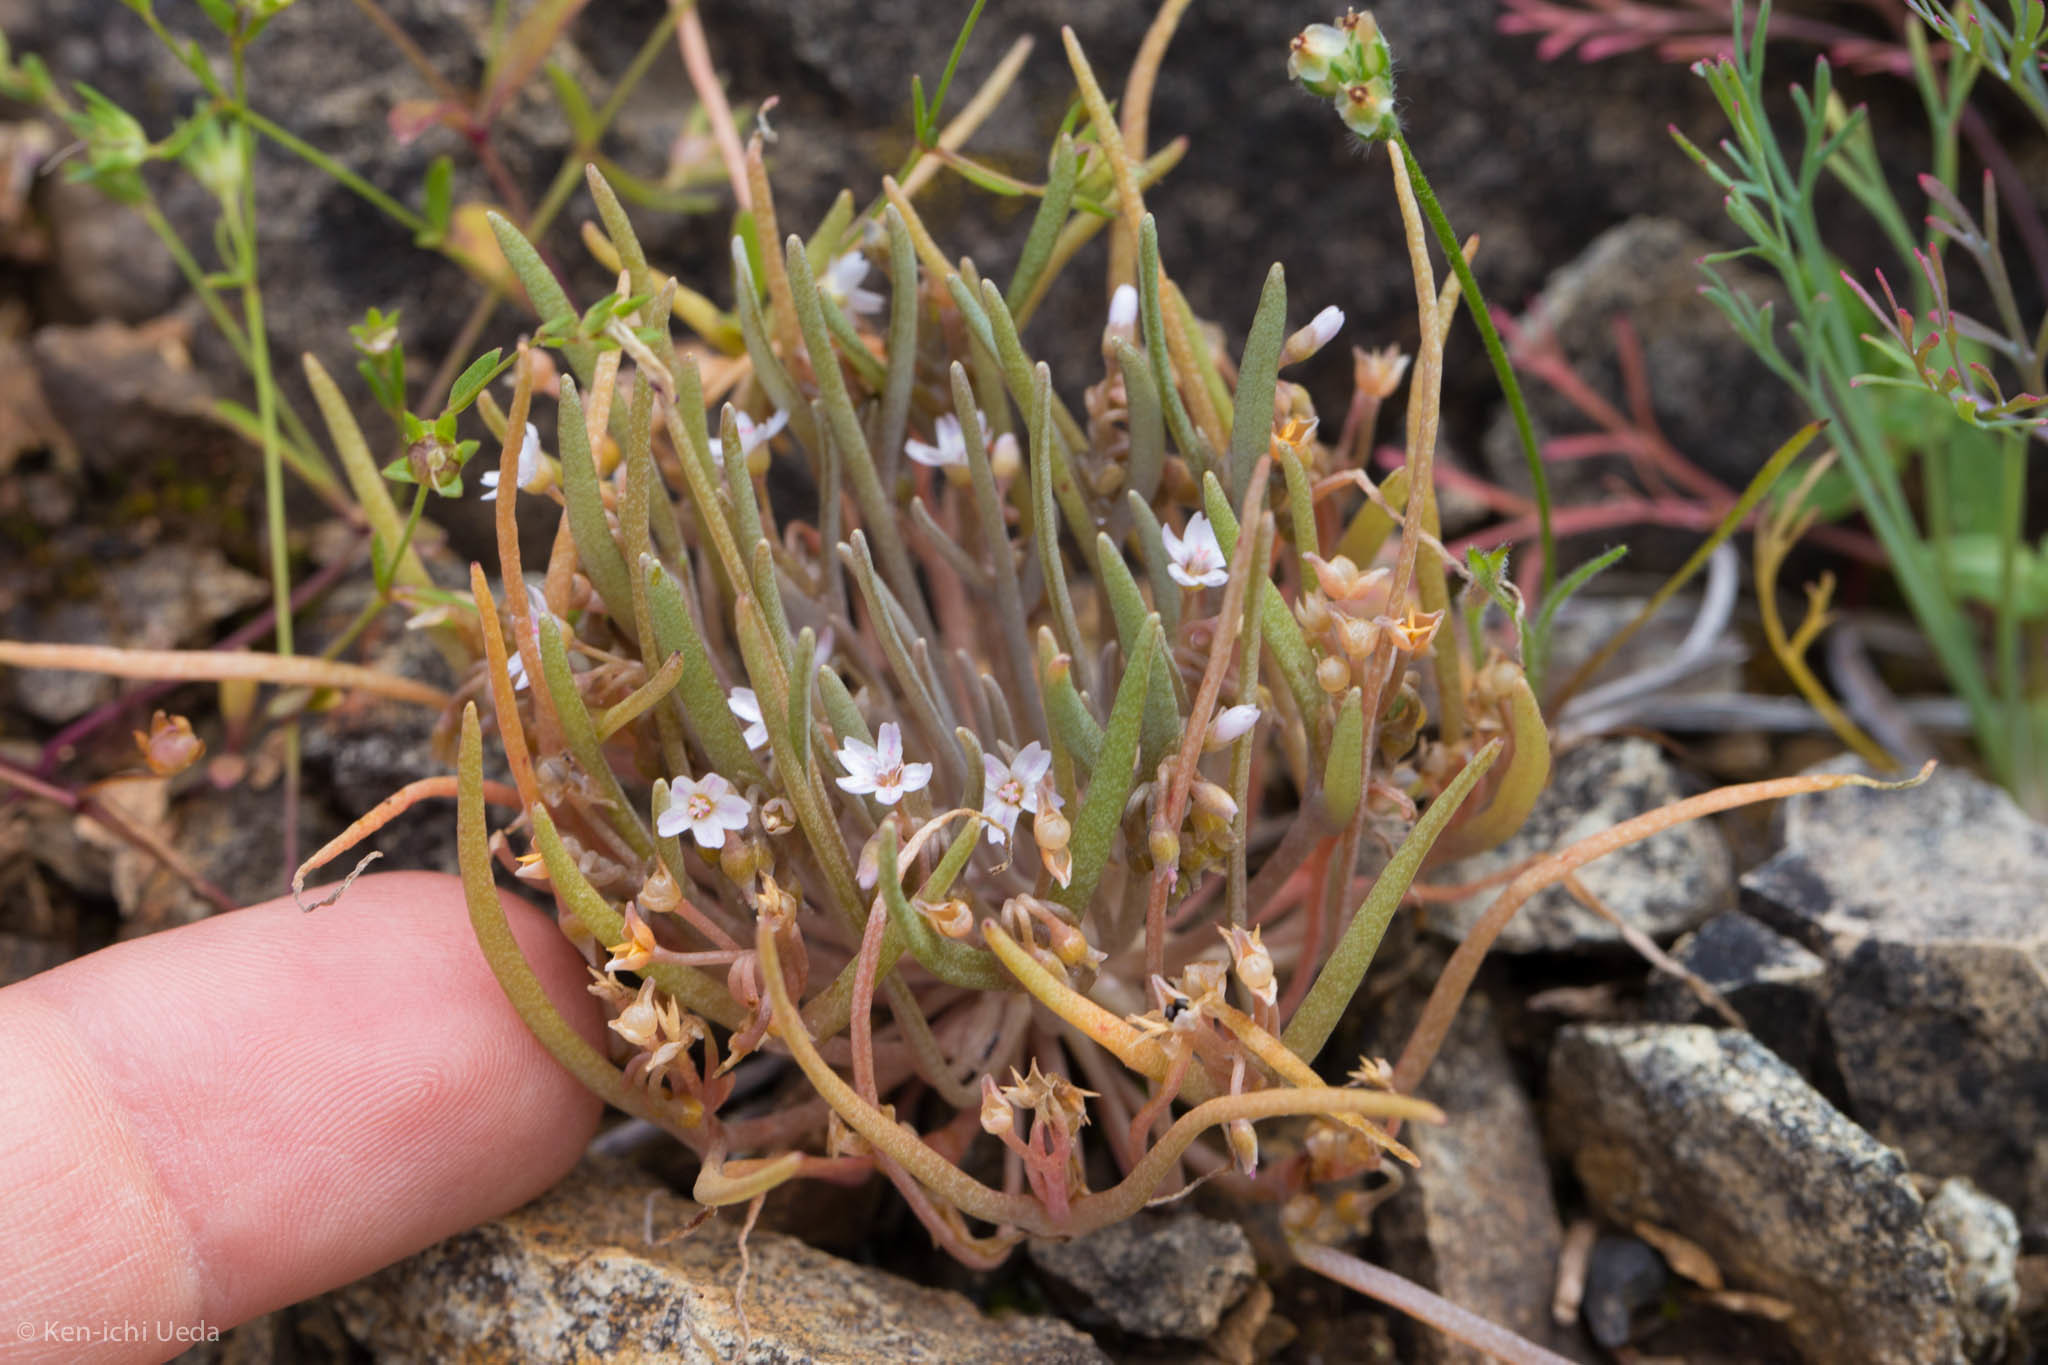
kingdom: Plantae
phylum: Tracheophyta
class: Magnoliopsida
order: Caryophyllales
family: Montiaceae
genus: Claytonia
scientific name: Claytonia exigua
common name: Pale spring beauty
